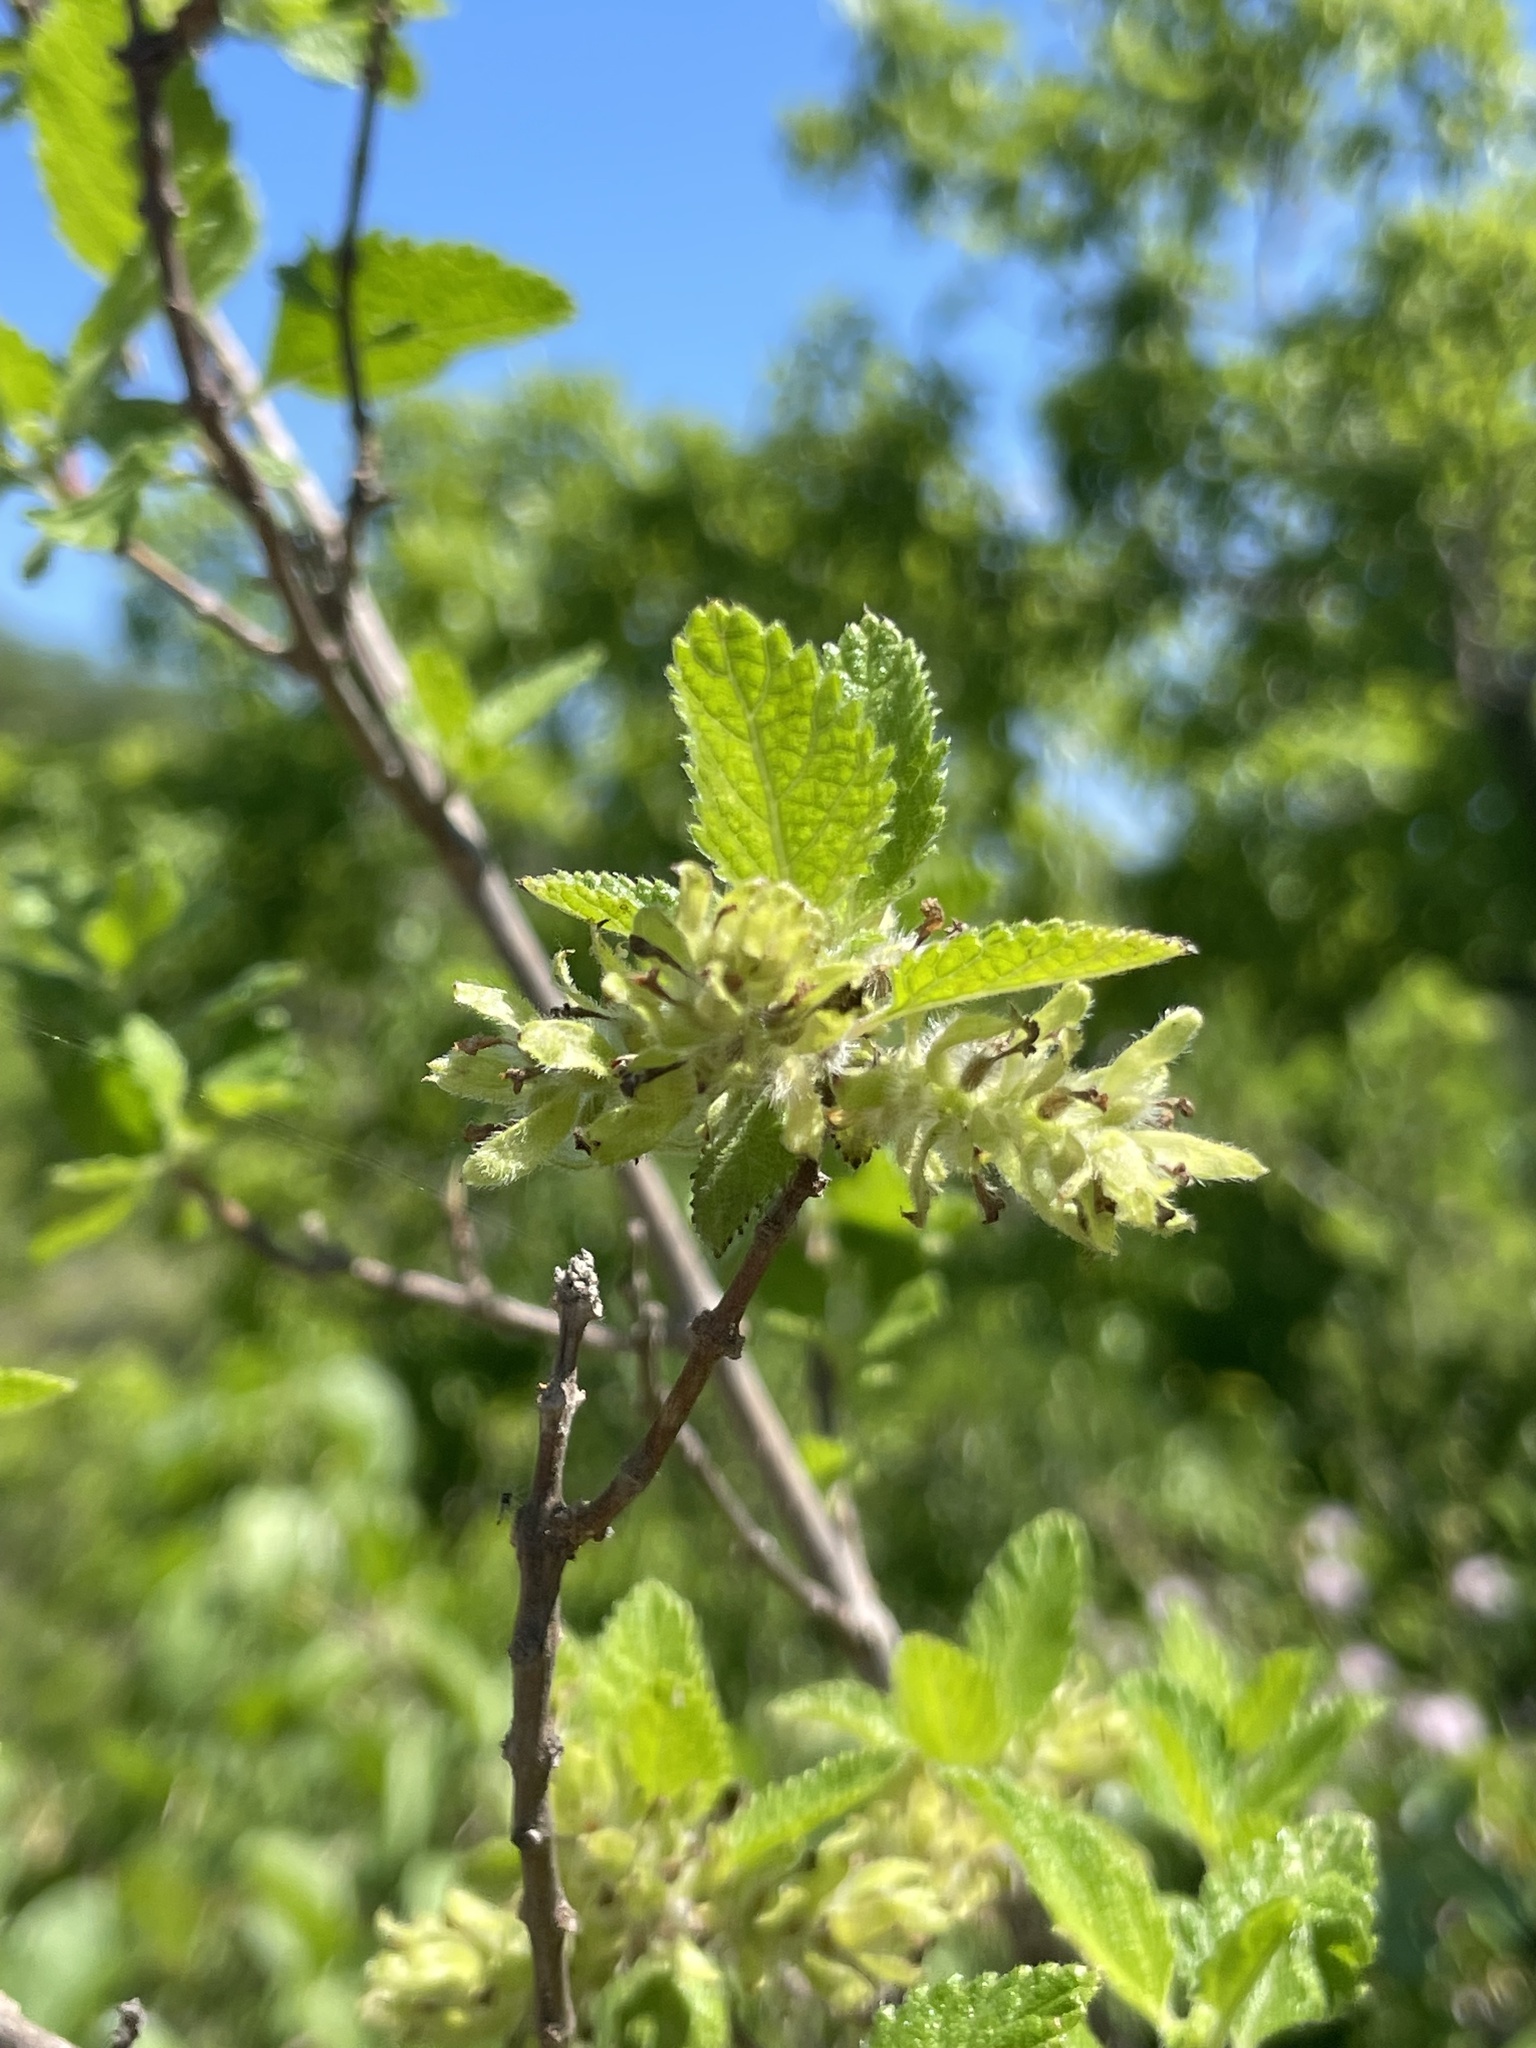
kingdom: Plantae
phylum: Tracheophyta
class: Magnoliopsida
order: Lamiales
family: Verbenaceae
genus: Aloysia
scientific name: Aloysia barbata
